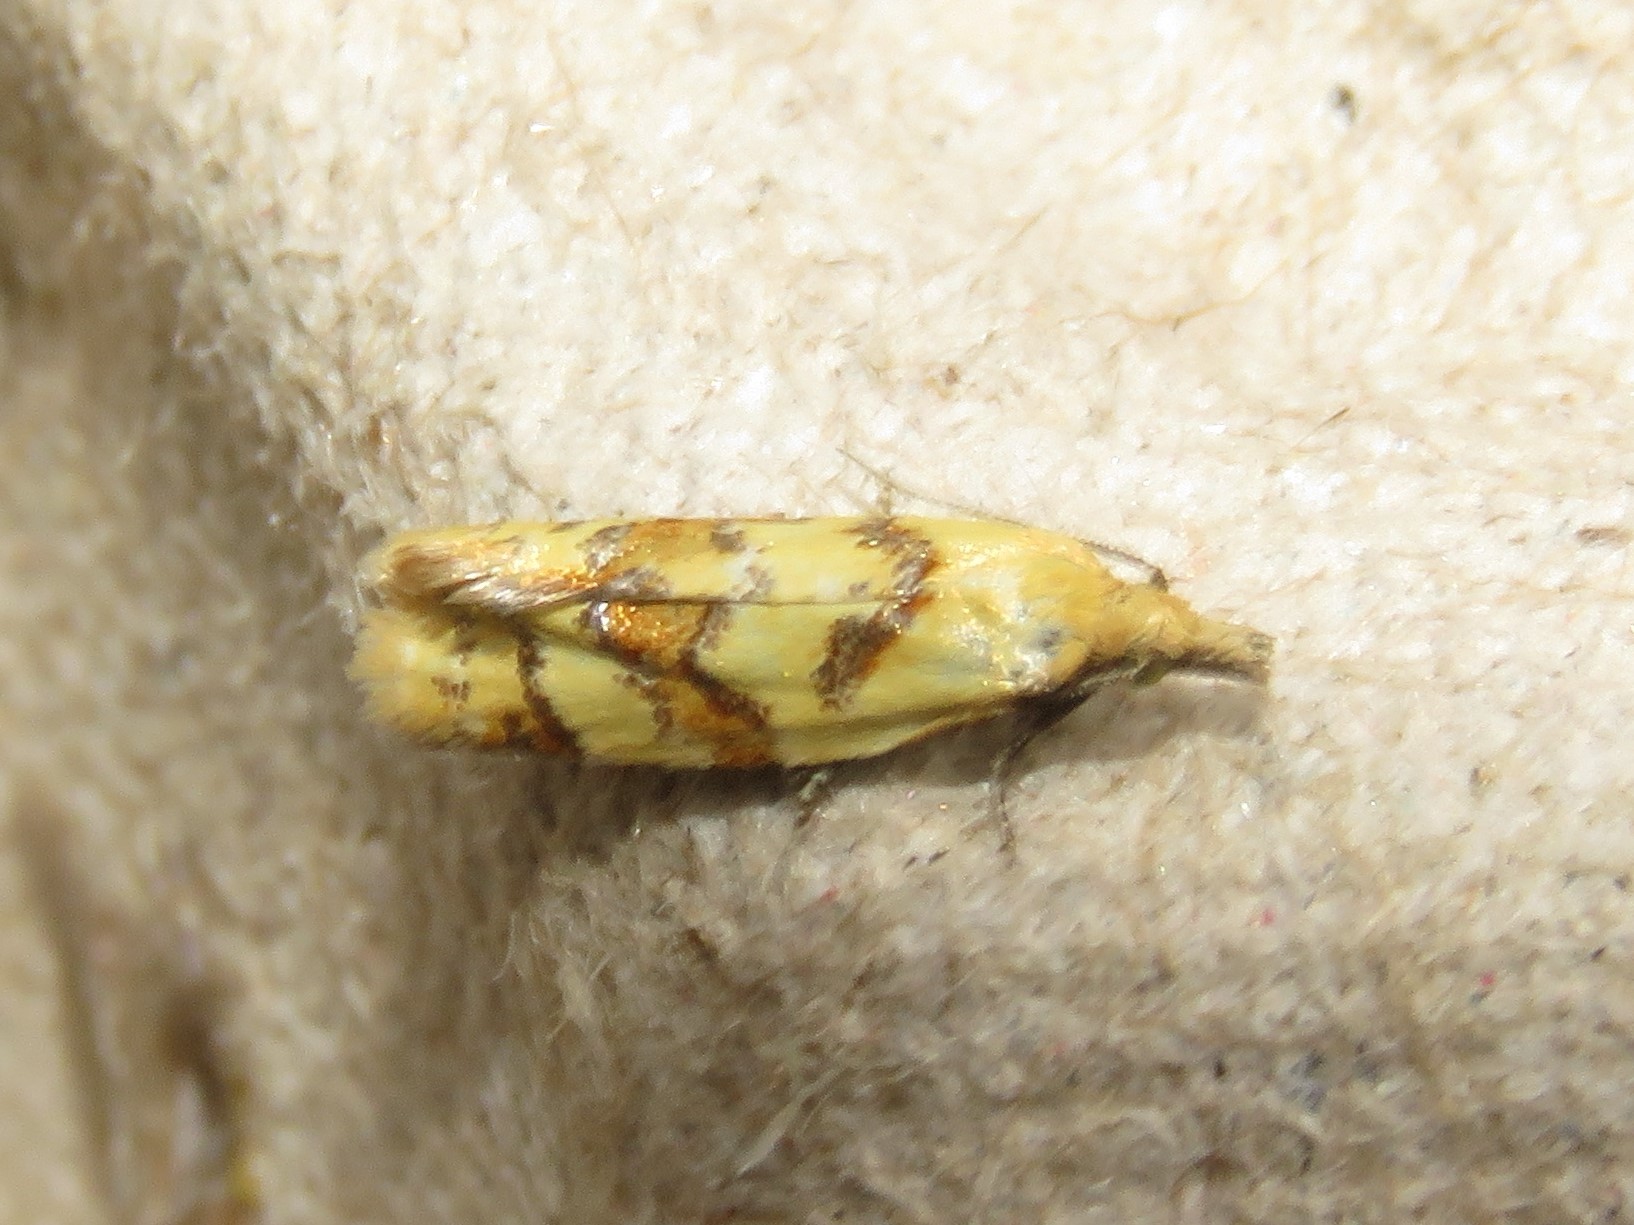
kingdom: Animalia
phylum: Arthropoda
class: Insecta
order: Lepidoptera
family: Tortricidae
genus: Phtheochroa
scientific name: Phtheochroa vitellinana
